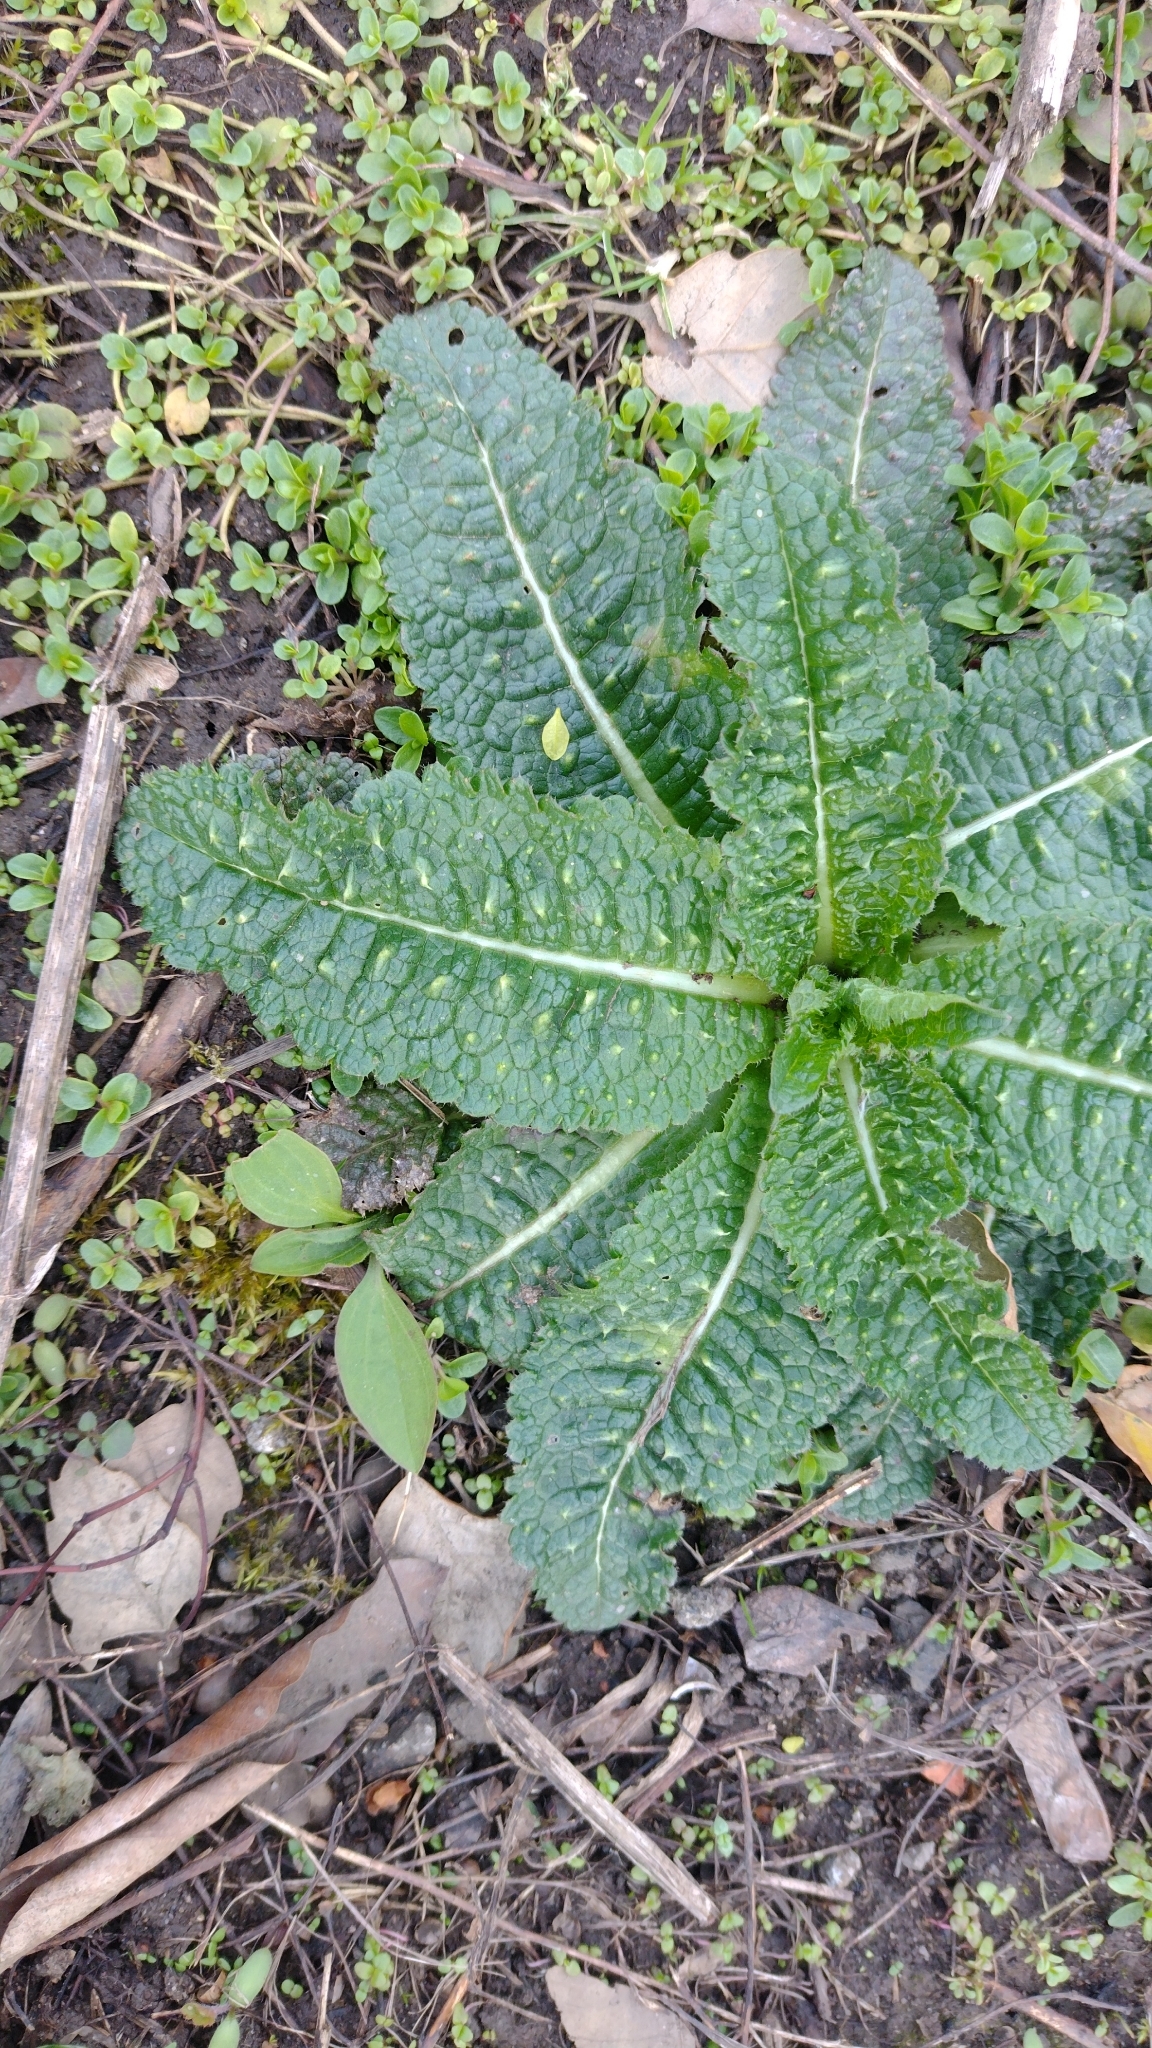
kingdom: Plantae
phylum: Tracheophyta
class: Magnoliopsida
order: Dipsacales
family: Caprifoliaceae
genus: Dipsacus
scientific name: Dipsacus fullonum
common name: Teasel
